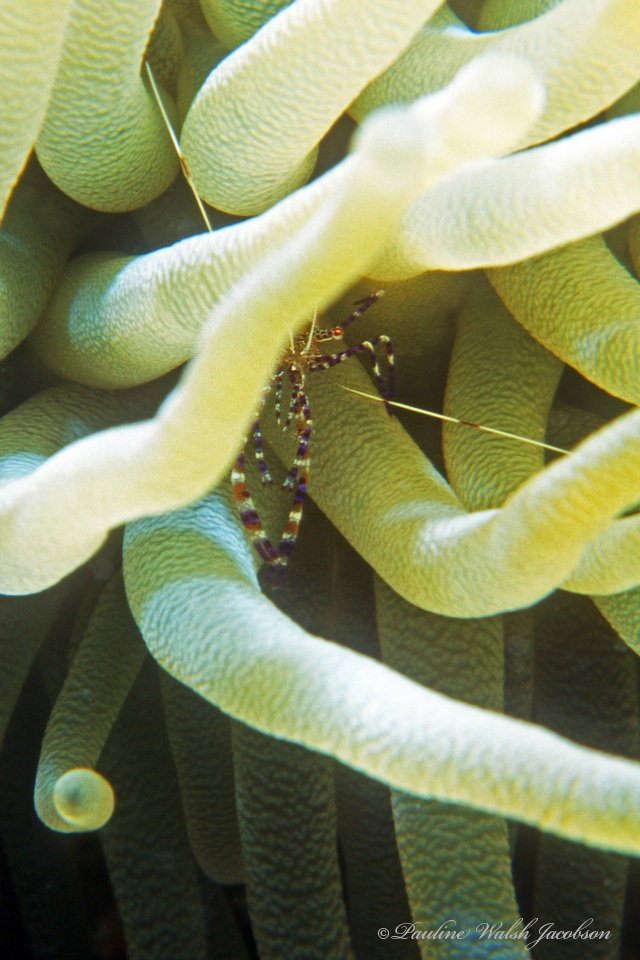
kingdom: Animalia
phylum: Arthropoda
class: Malacostraca
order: Decapoda
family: Palaemonidae
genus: Periclimenes
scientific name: Periclimenes yucatanicus
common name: Spotted cleaning shrimp
